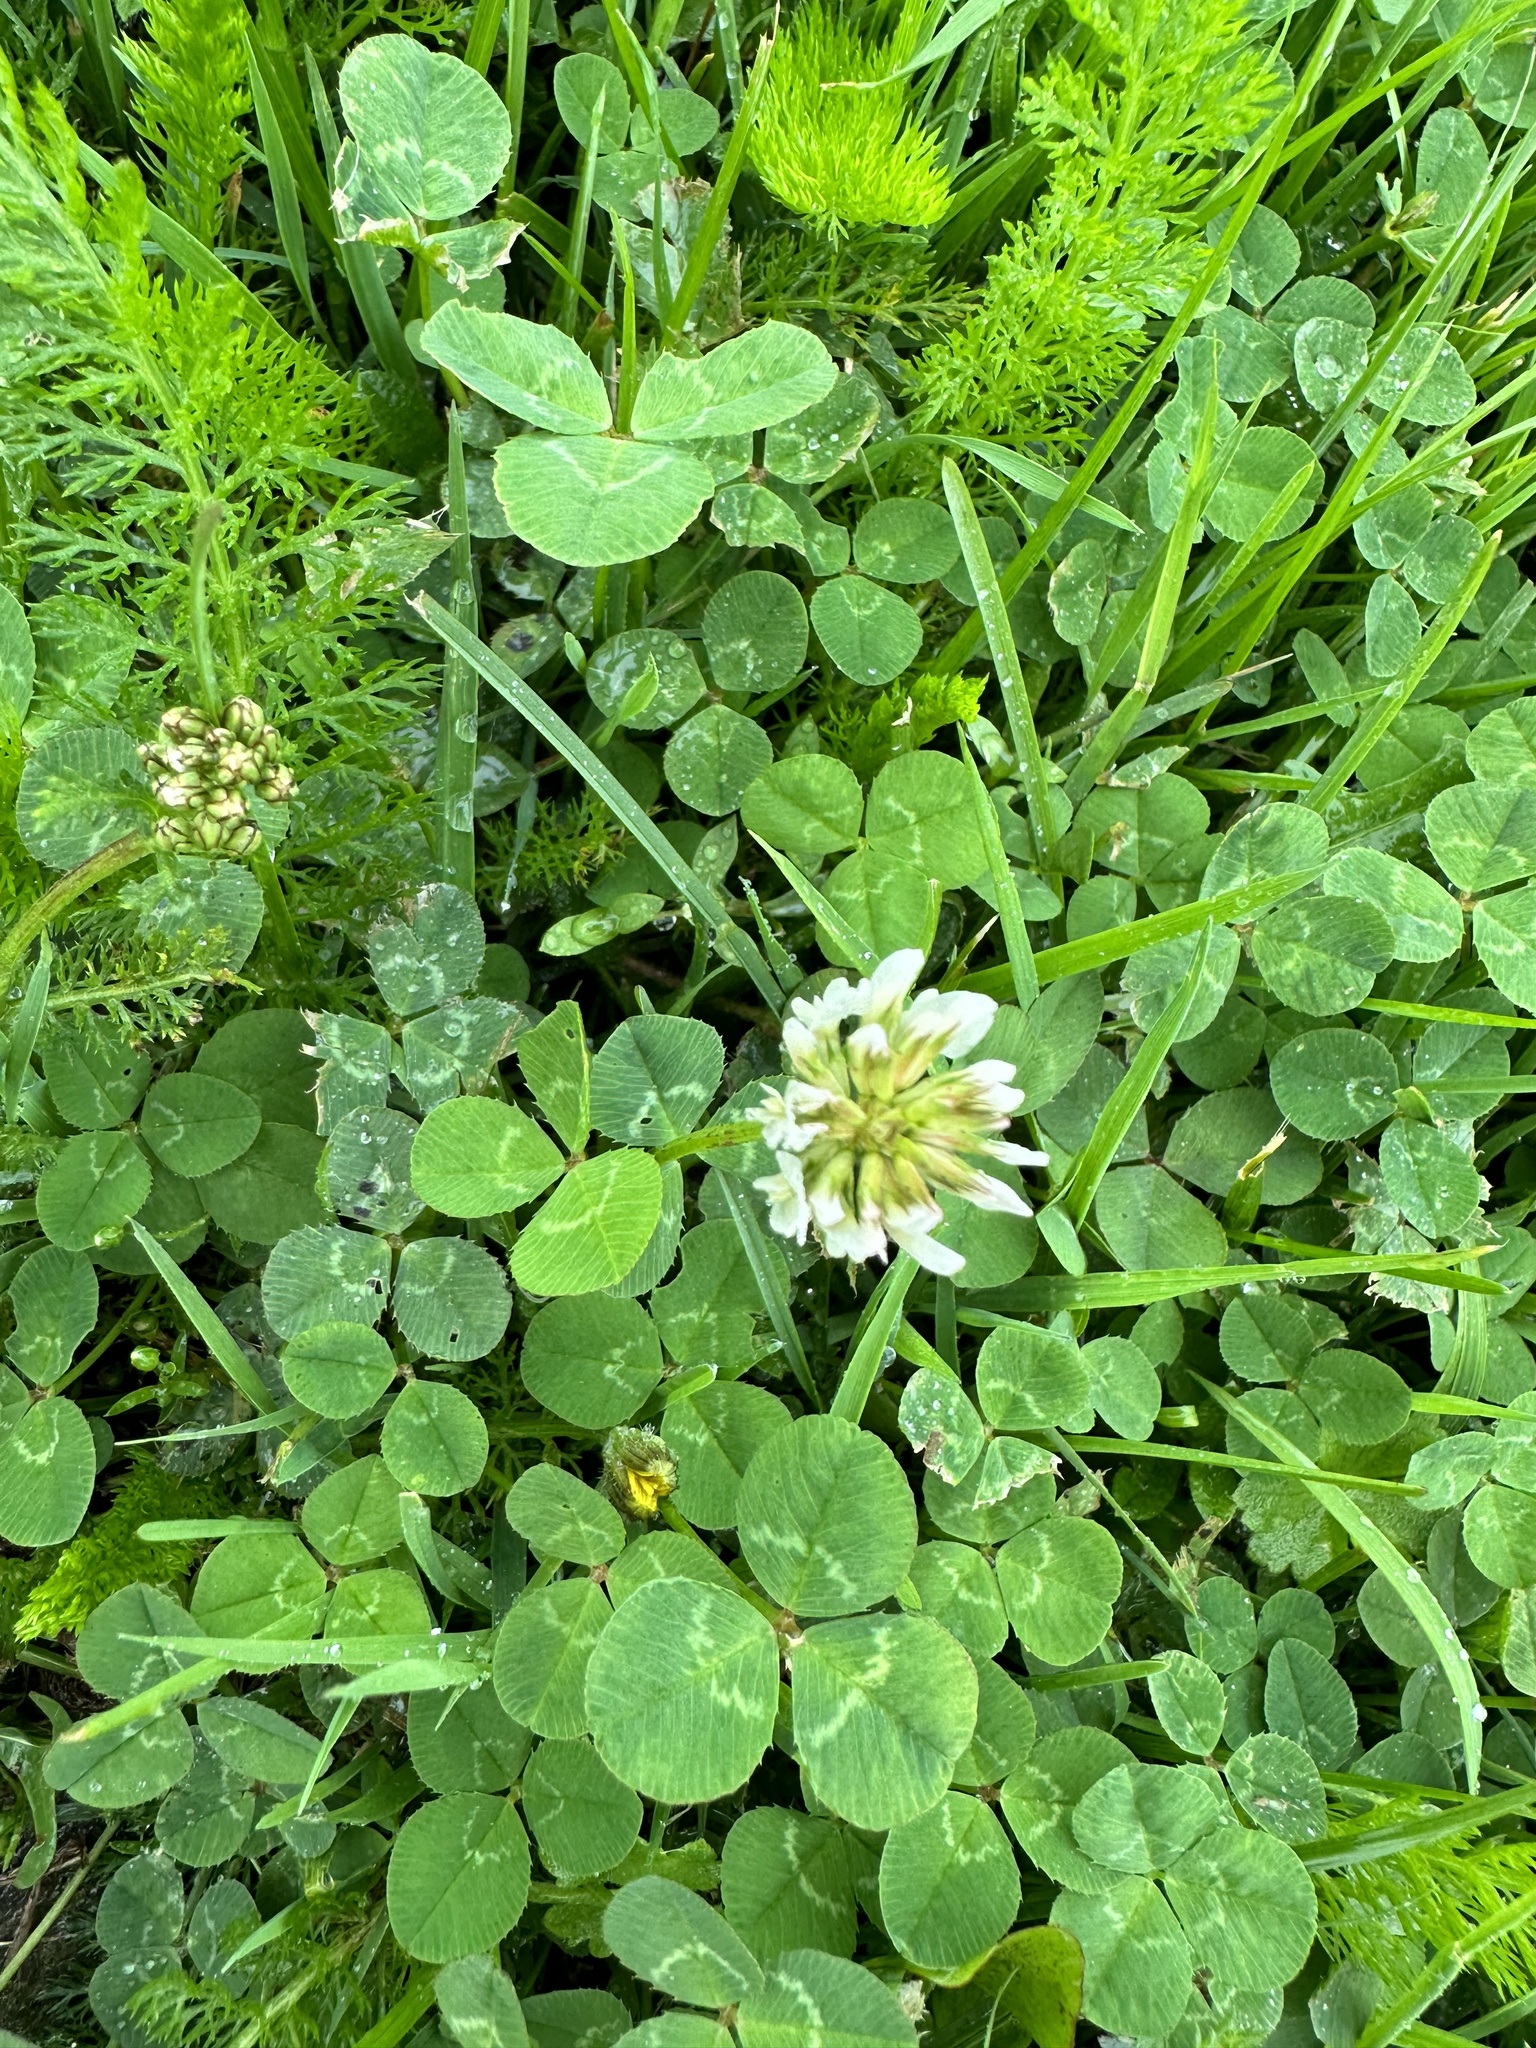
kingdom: Plantae
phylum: Tracheophyta
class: Magnoliopsida
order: Fabales
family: Fabaceae
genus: Trifolium
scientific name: Trifolium repens
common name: White clover
